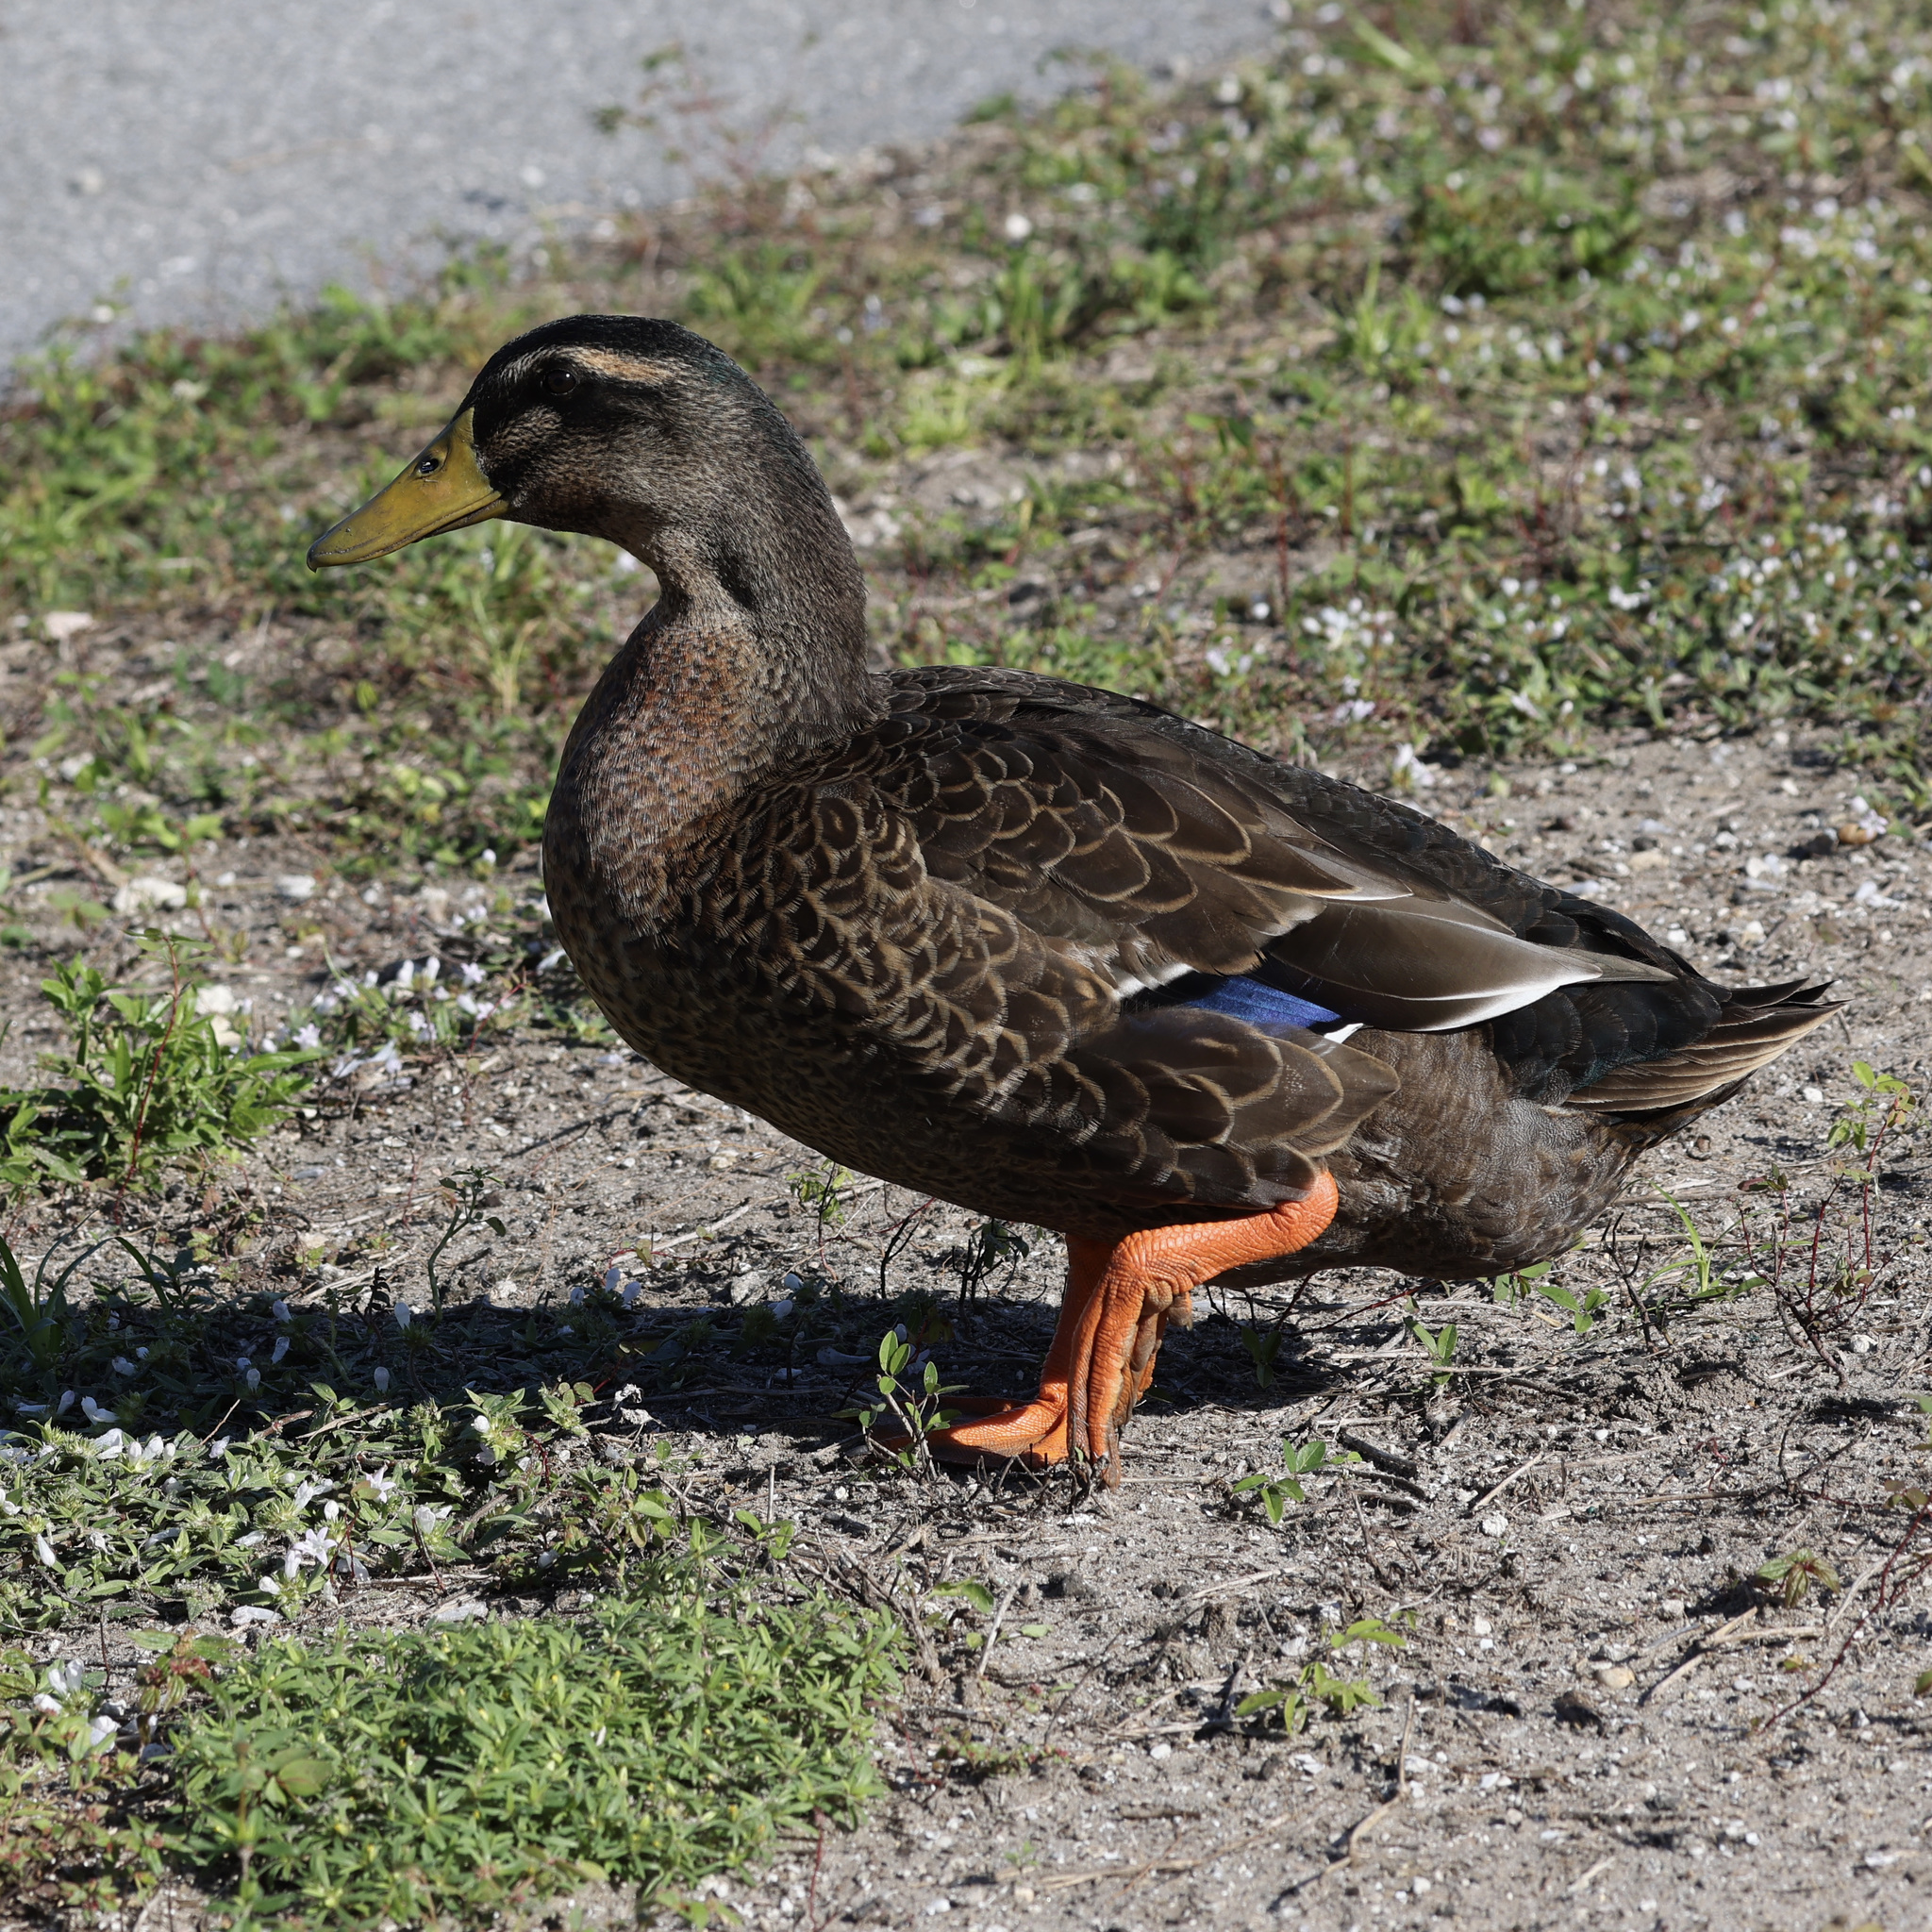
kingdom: Animalia
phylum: Chordata
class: Aves
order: Anseriformes
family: Anatidae
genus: Anas
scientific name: Anas platyrhynchos
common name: Mallard
